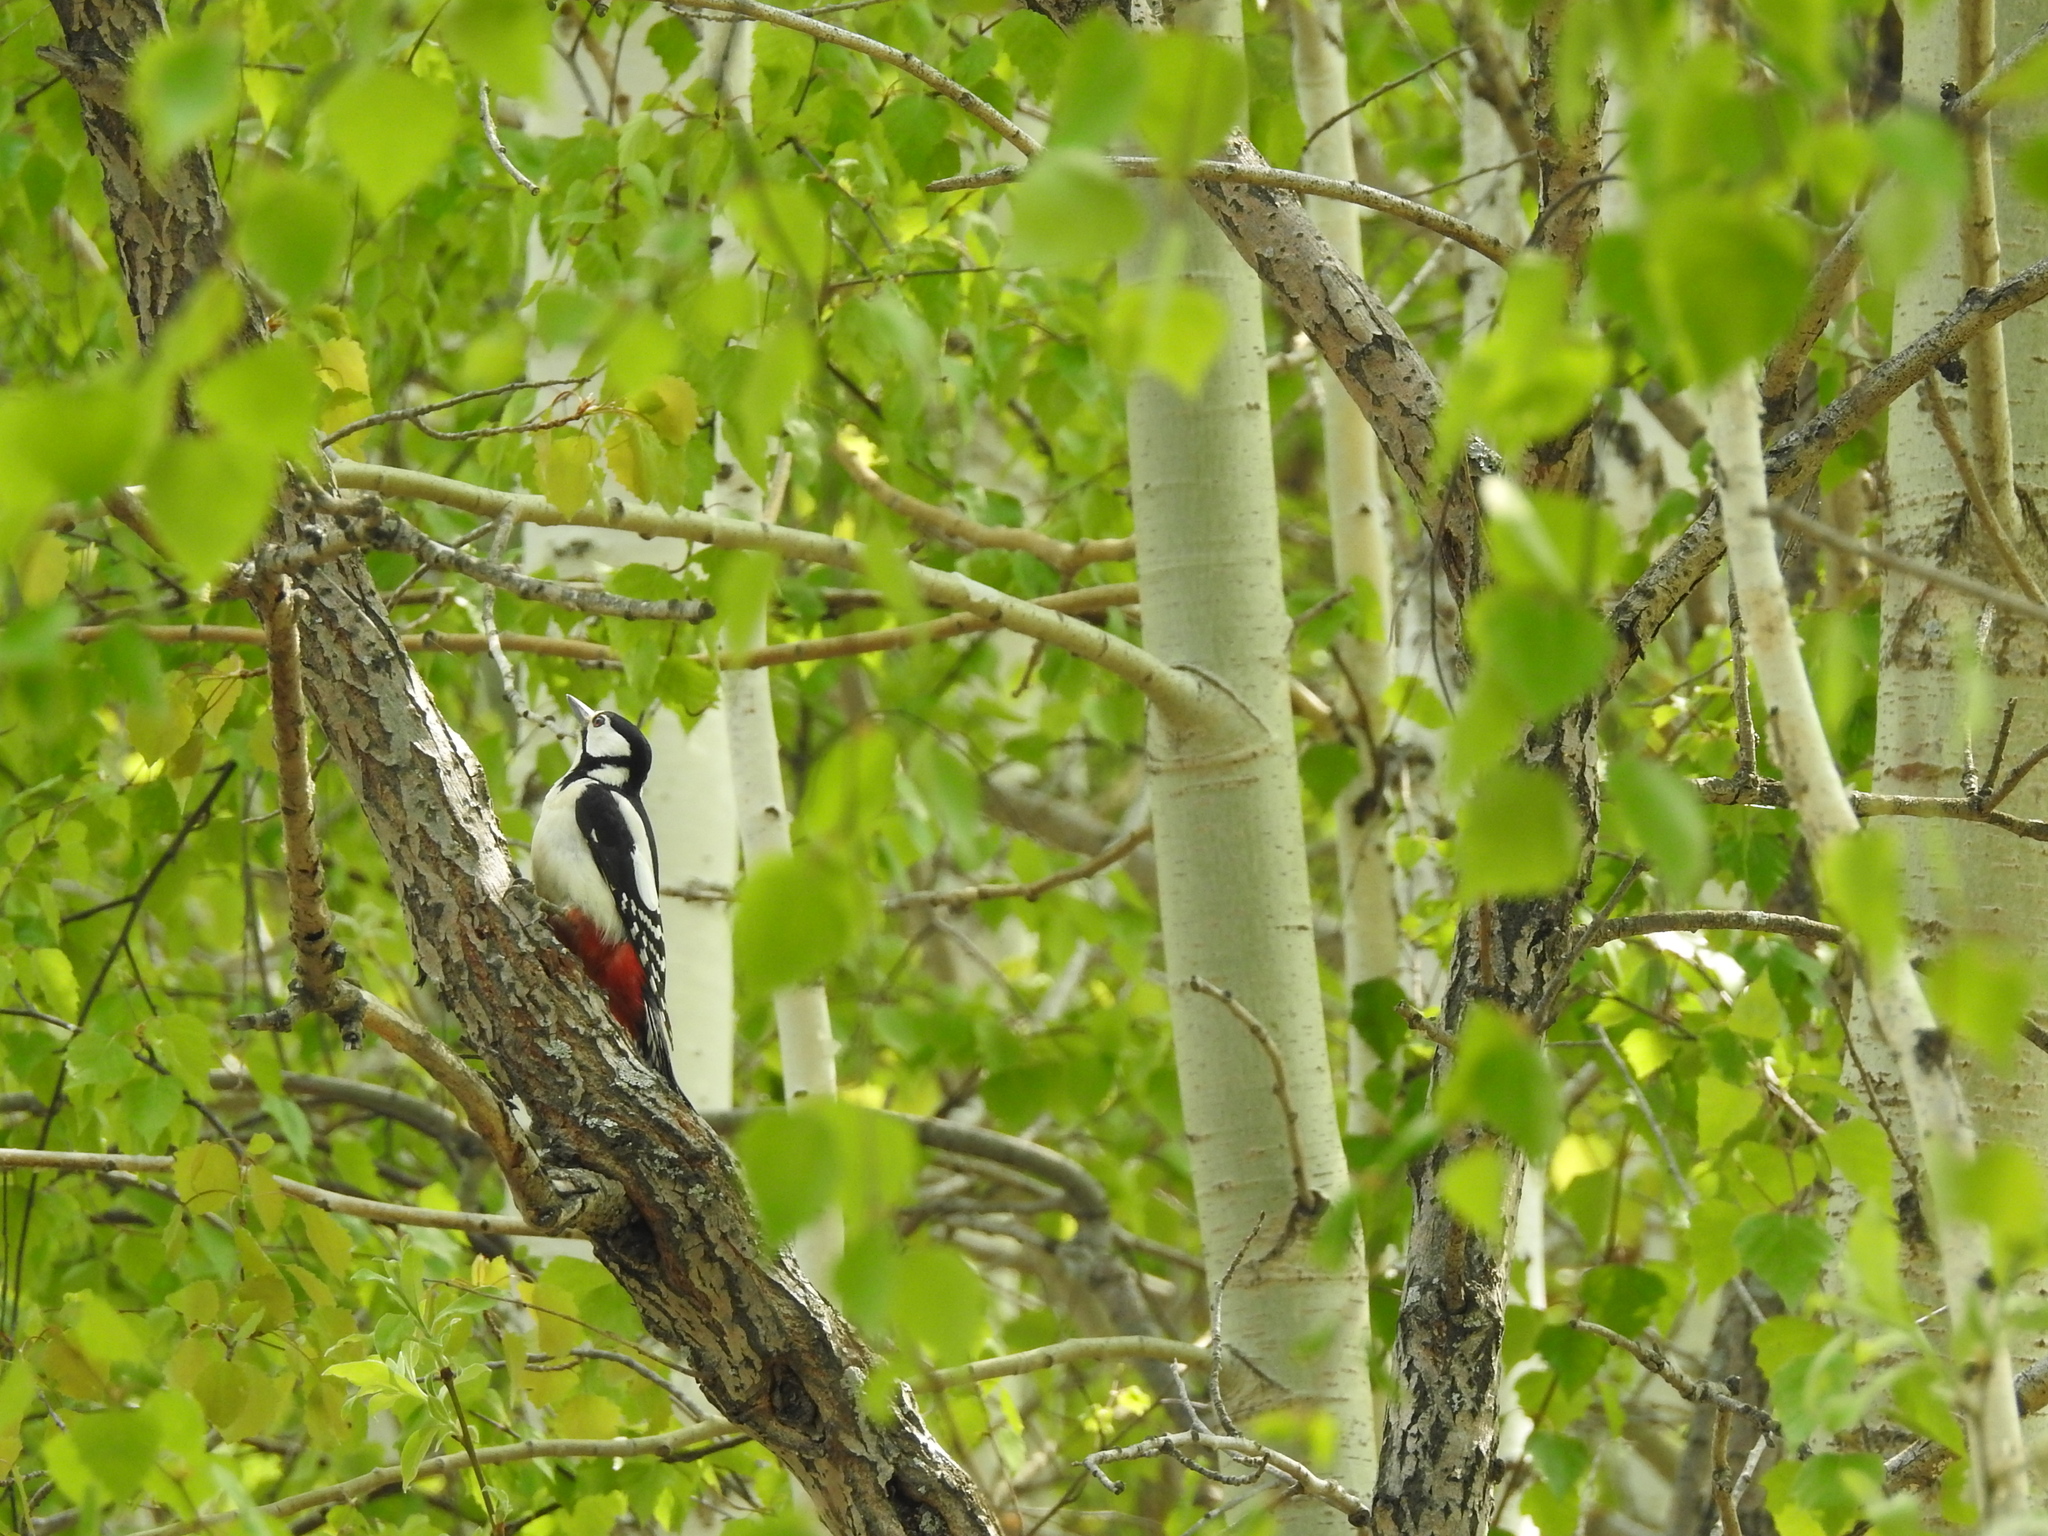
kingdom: Animalia
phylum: Chordata
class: Aves
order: Piciformes
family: Picidae
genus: Dendrocopos
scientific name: Dendrocopos major
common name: Great spotted woodpecker
